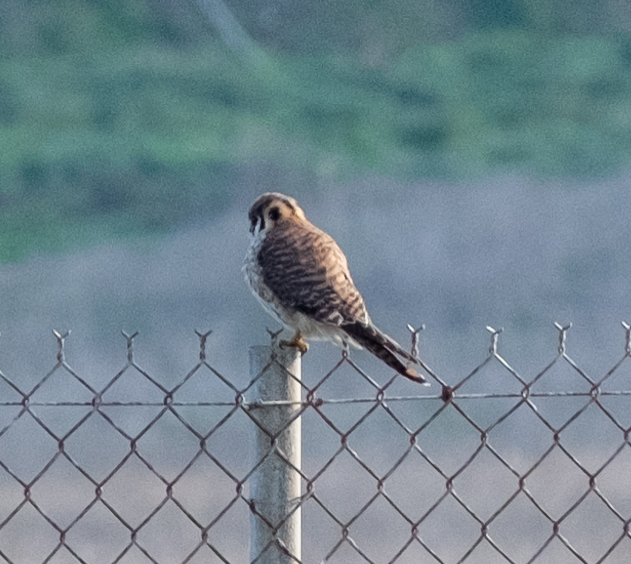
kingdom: Animalia
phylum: Chordata
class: Aves
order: Falconiformes
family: Falconidae
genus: Falco
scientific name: Falco sparverius
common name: American kestrel
